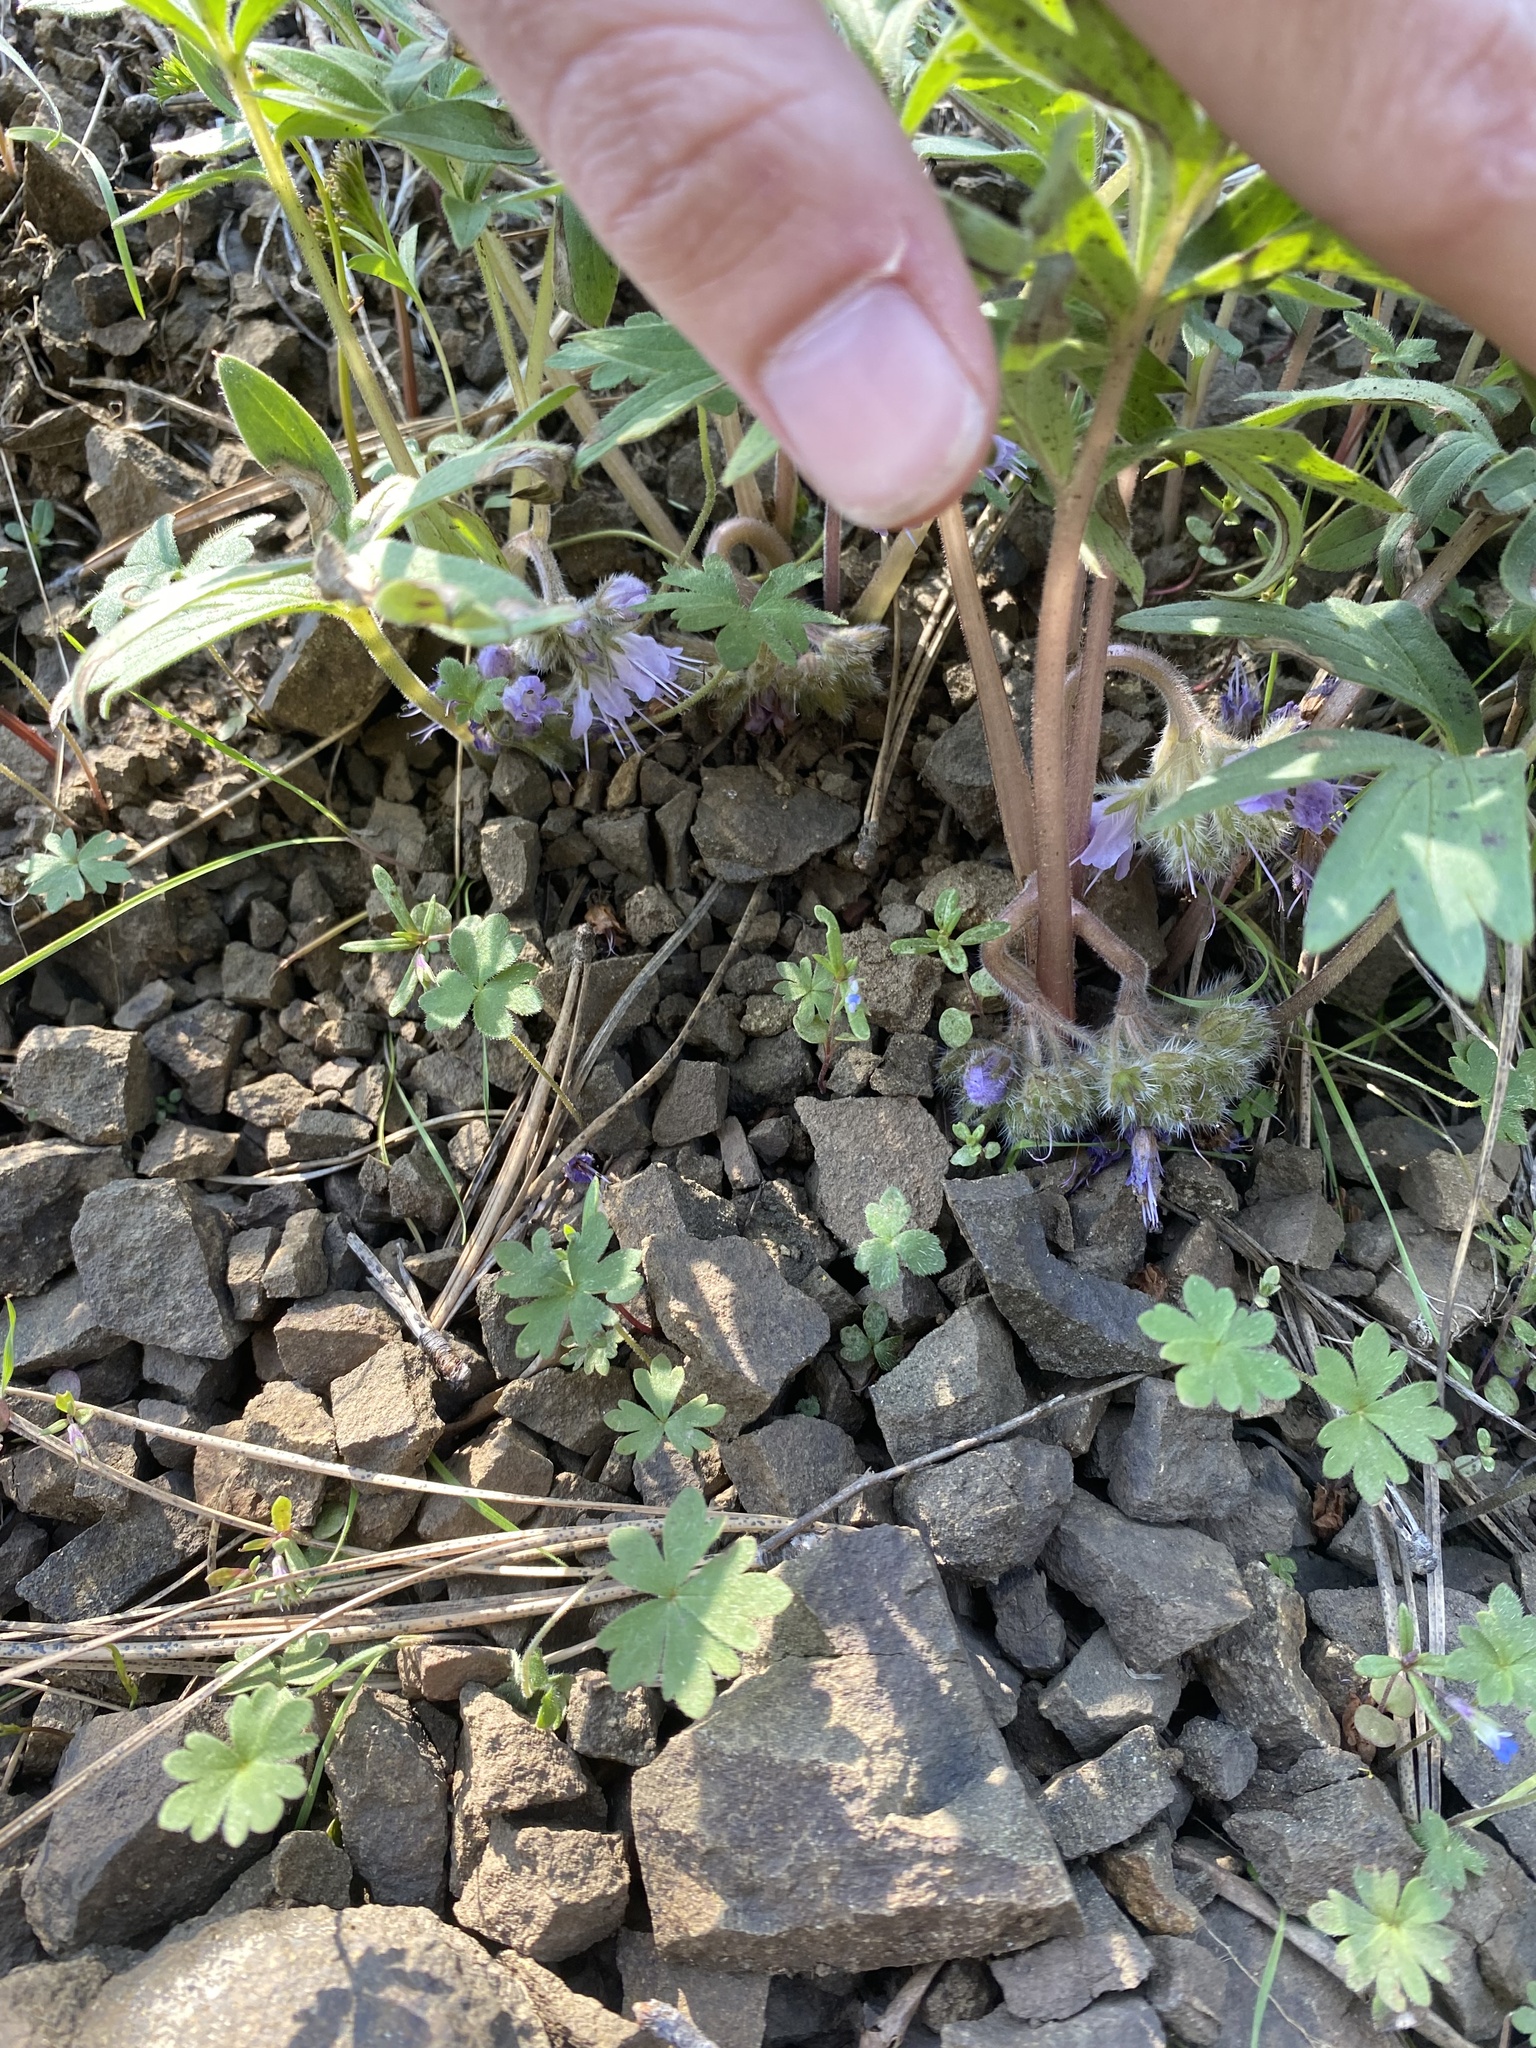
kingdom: Plantae
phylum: Tracheophyta
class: Magnoliopsida
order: Boraginales
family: Hydrophyllaceae
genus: Hydrophyllum
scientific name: Hydrophyllum alpestre
